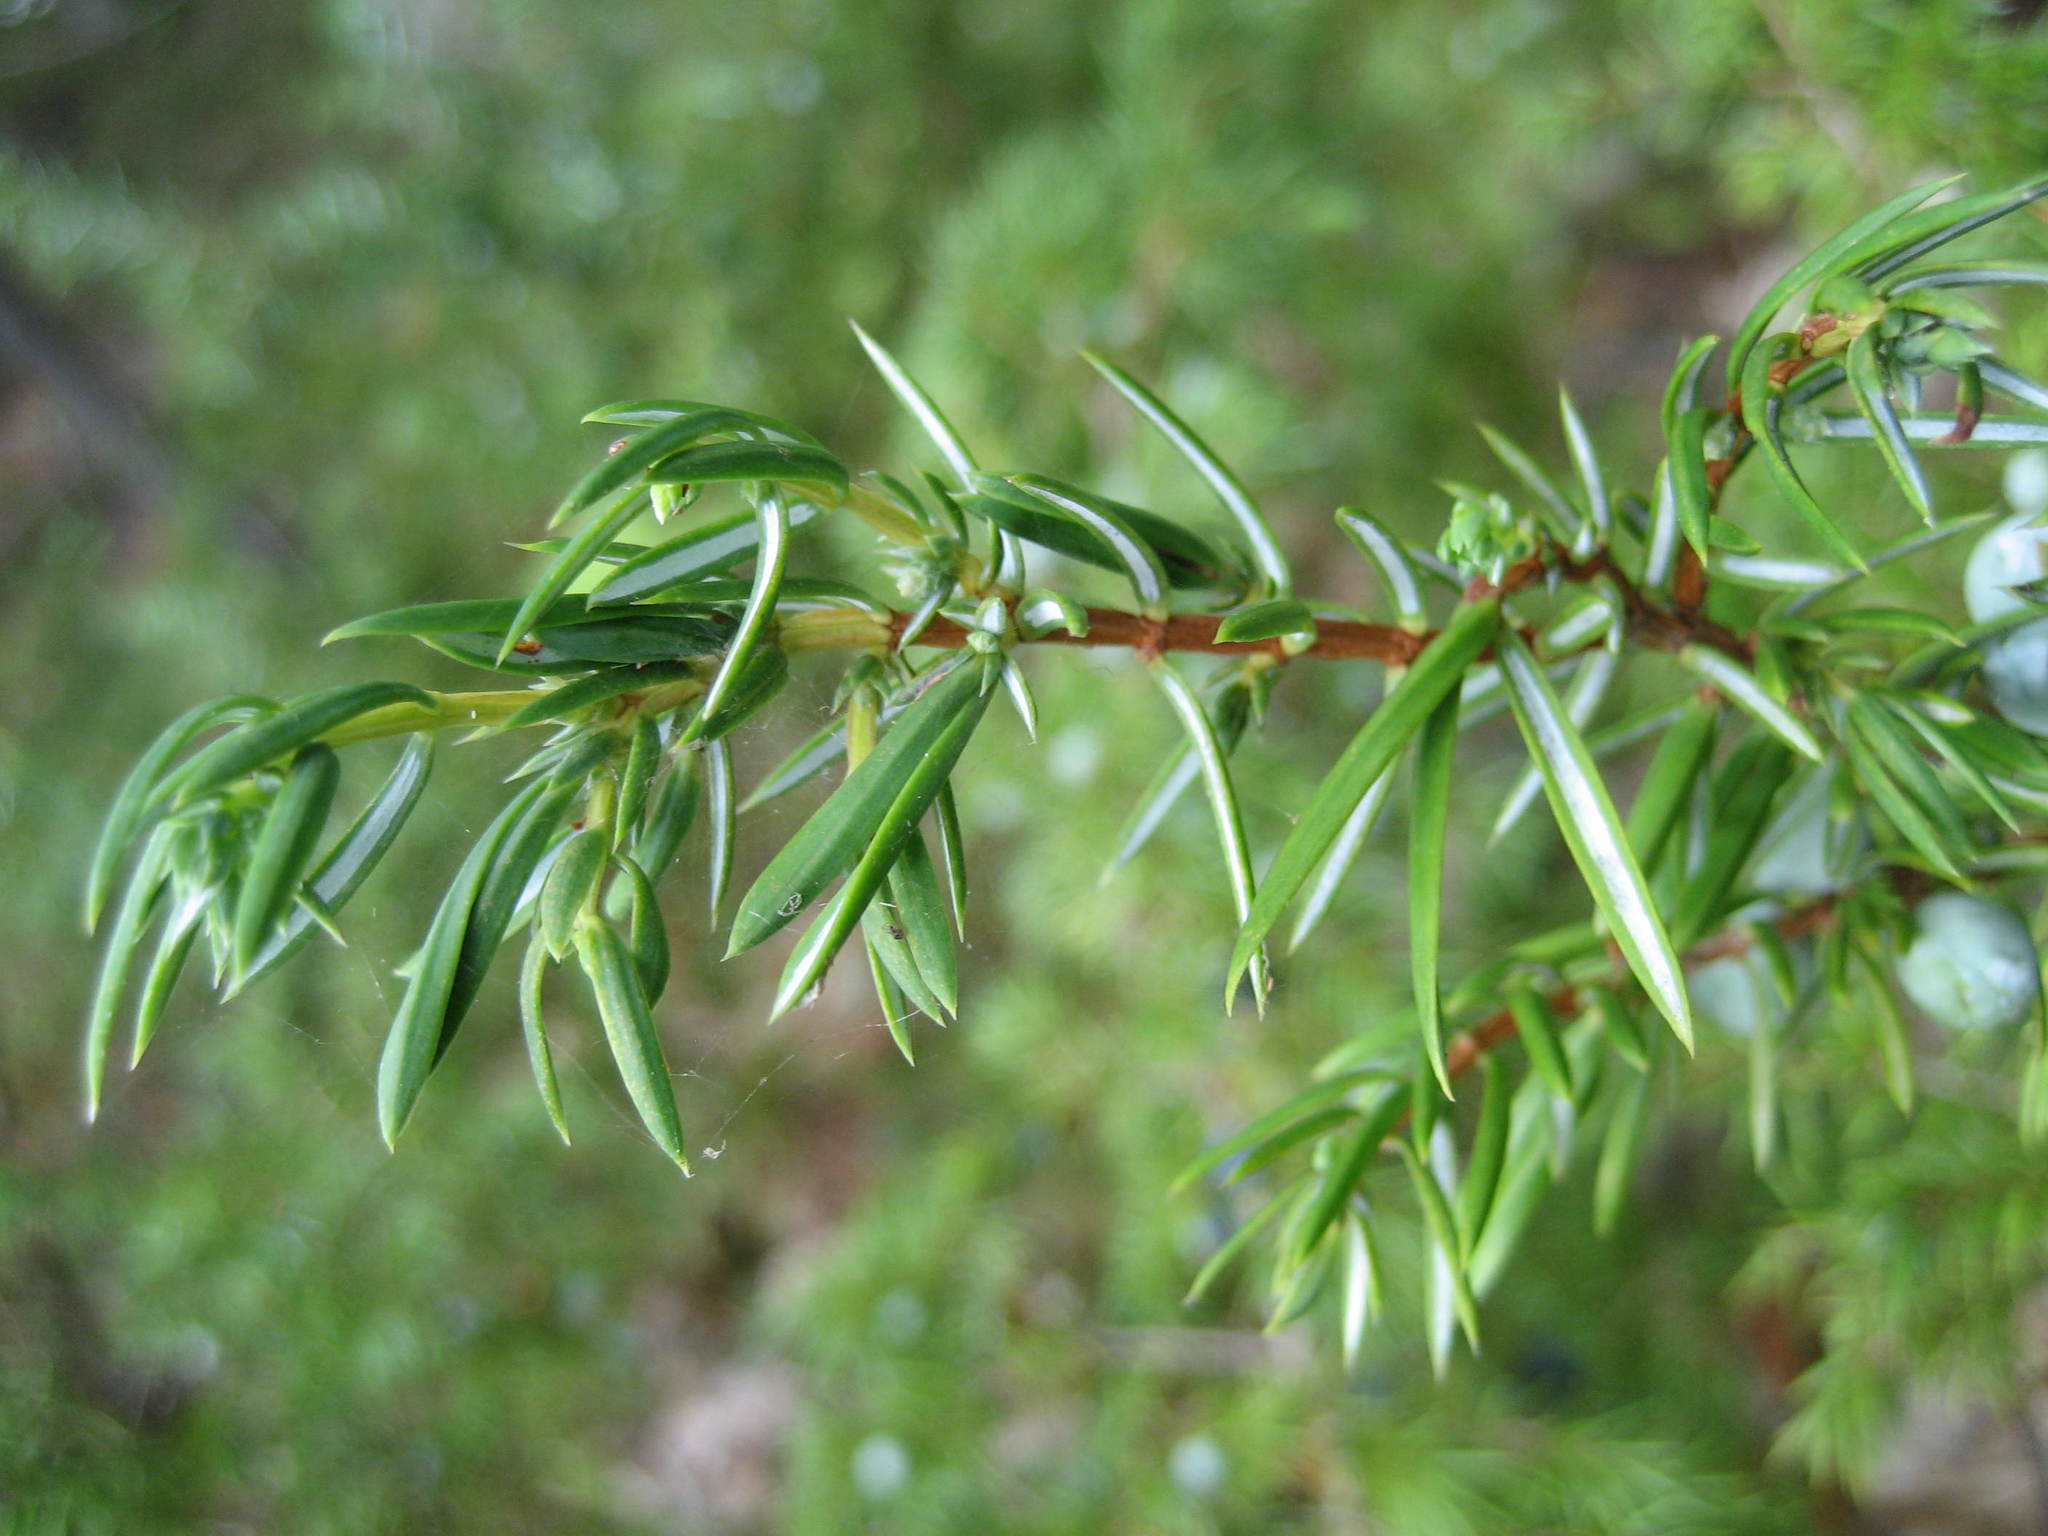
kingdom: Plantae
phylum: Tracheophyta
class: Pinopsida
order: Pinales
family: Cupressaceae
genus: Juniperus
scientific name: Juniperus communis
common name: Common juniper
